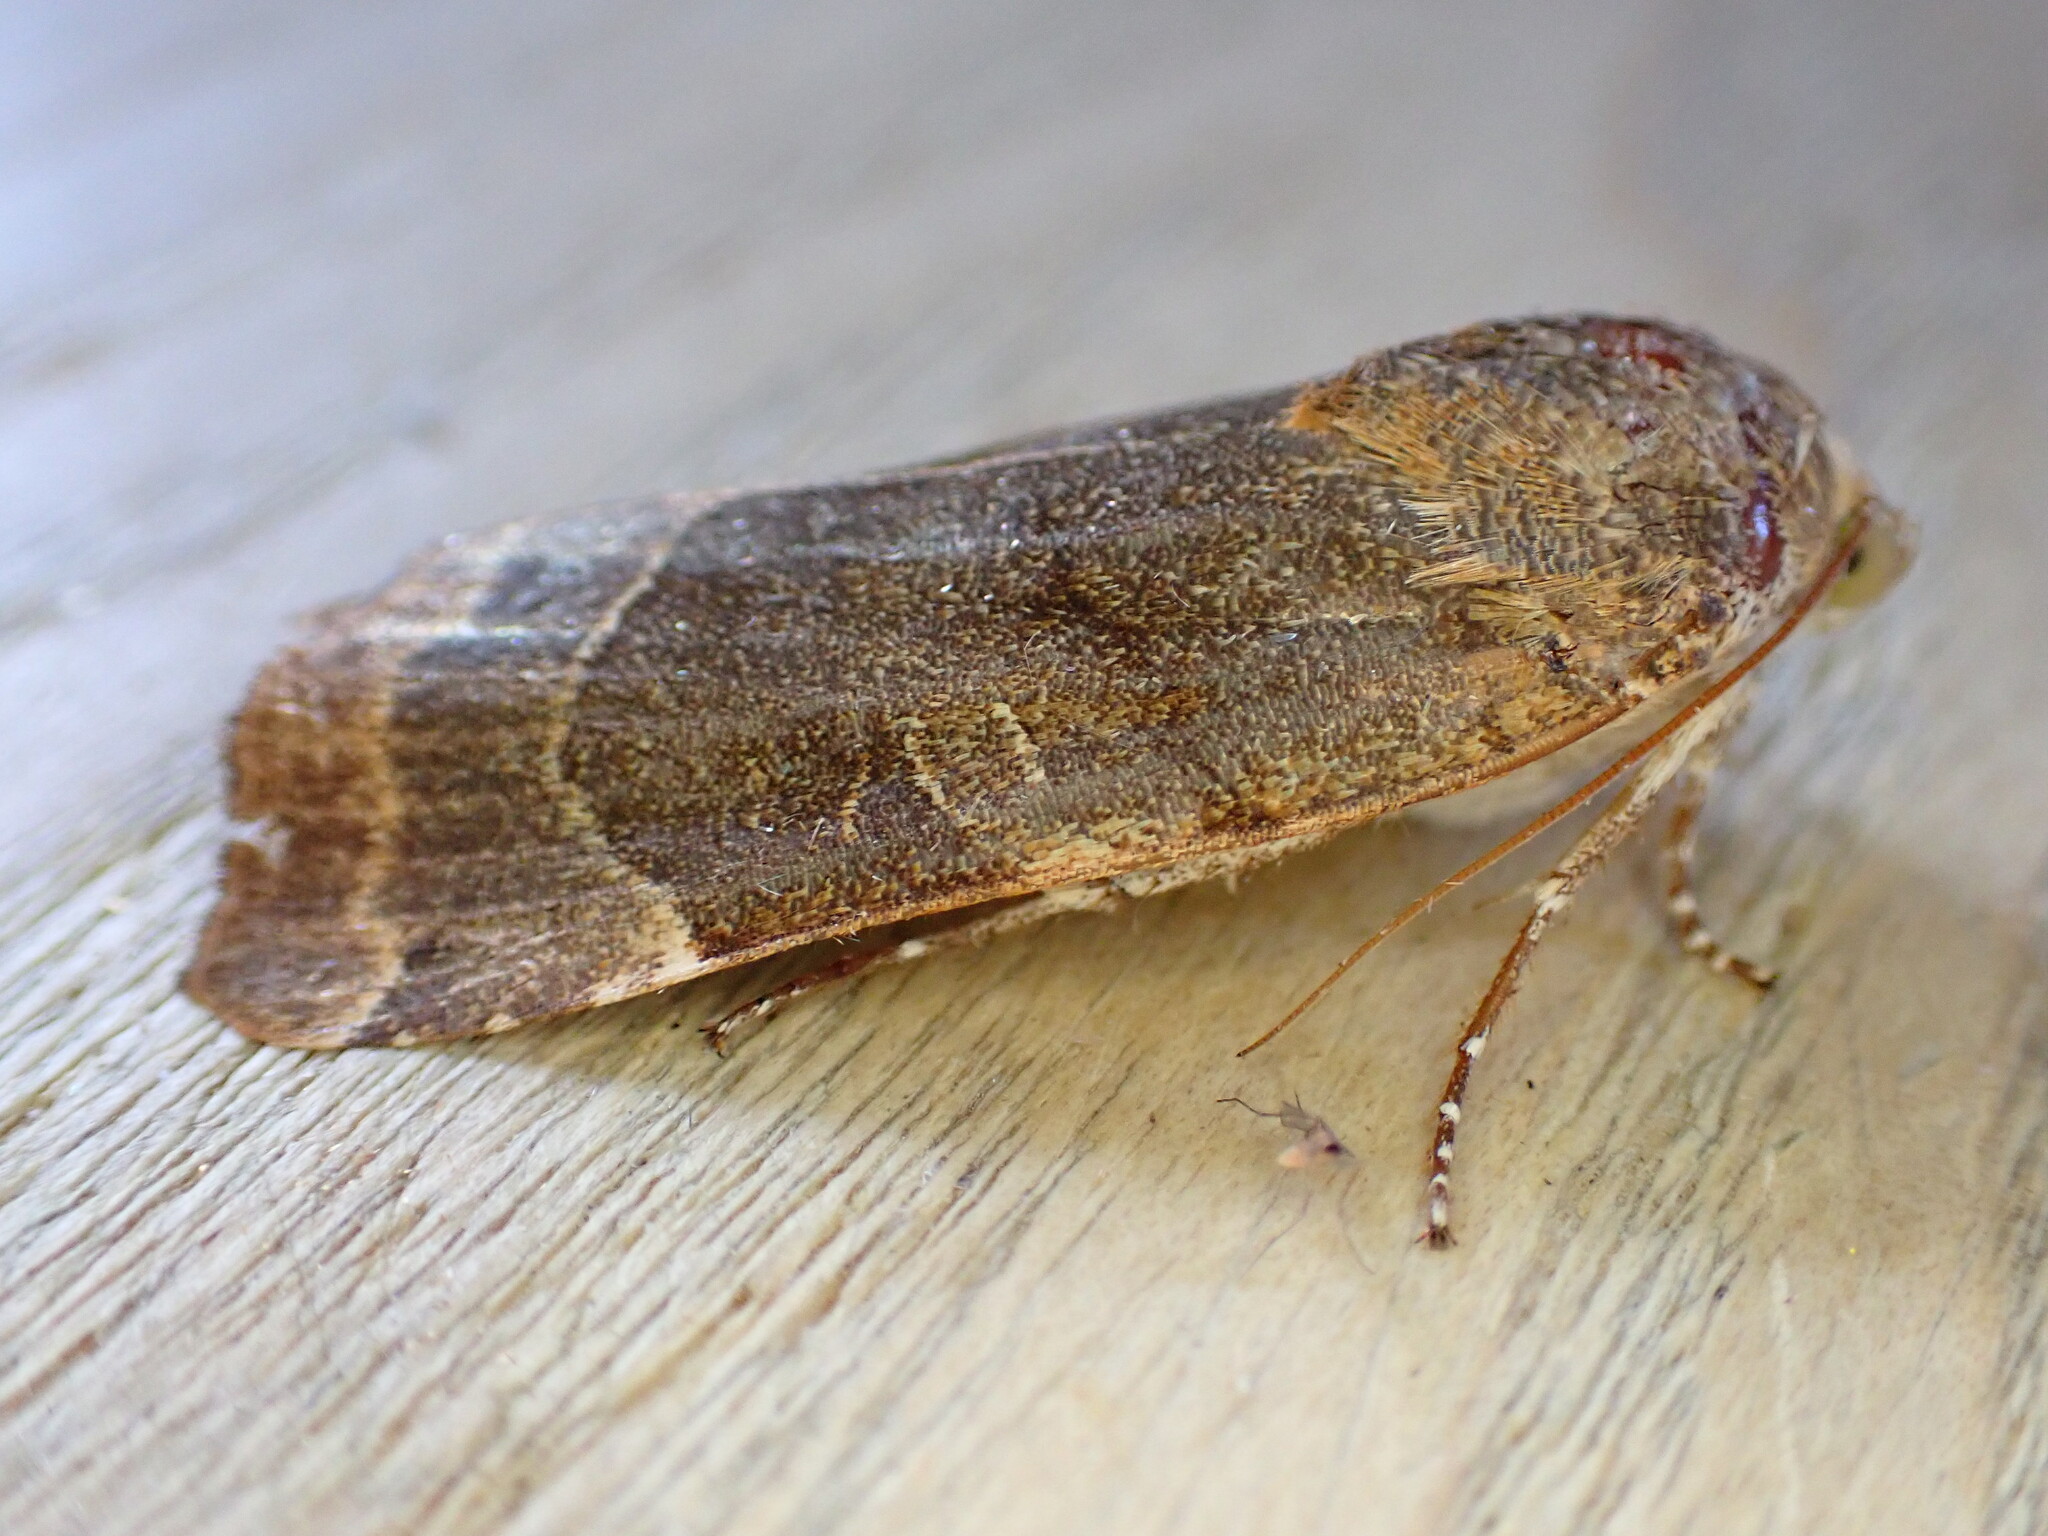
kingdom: Animalia
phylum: Arthropoda
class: Insecta
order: Lepidoptera
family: Noctuidae
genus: Noctua
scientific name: Noctua fimbriata
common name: Broad-bordered yellow underwing
